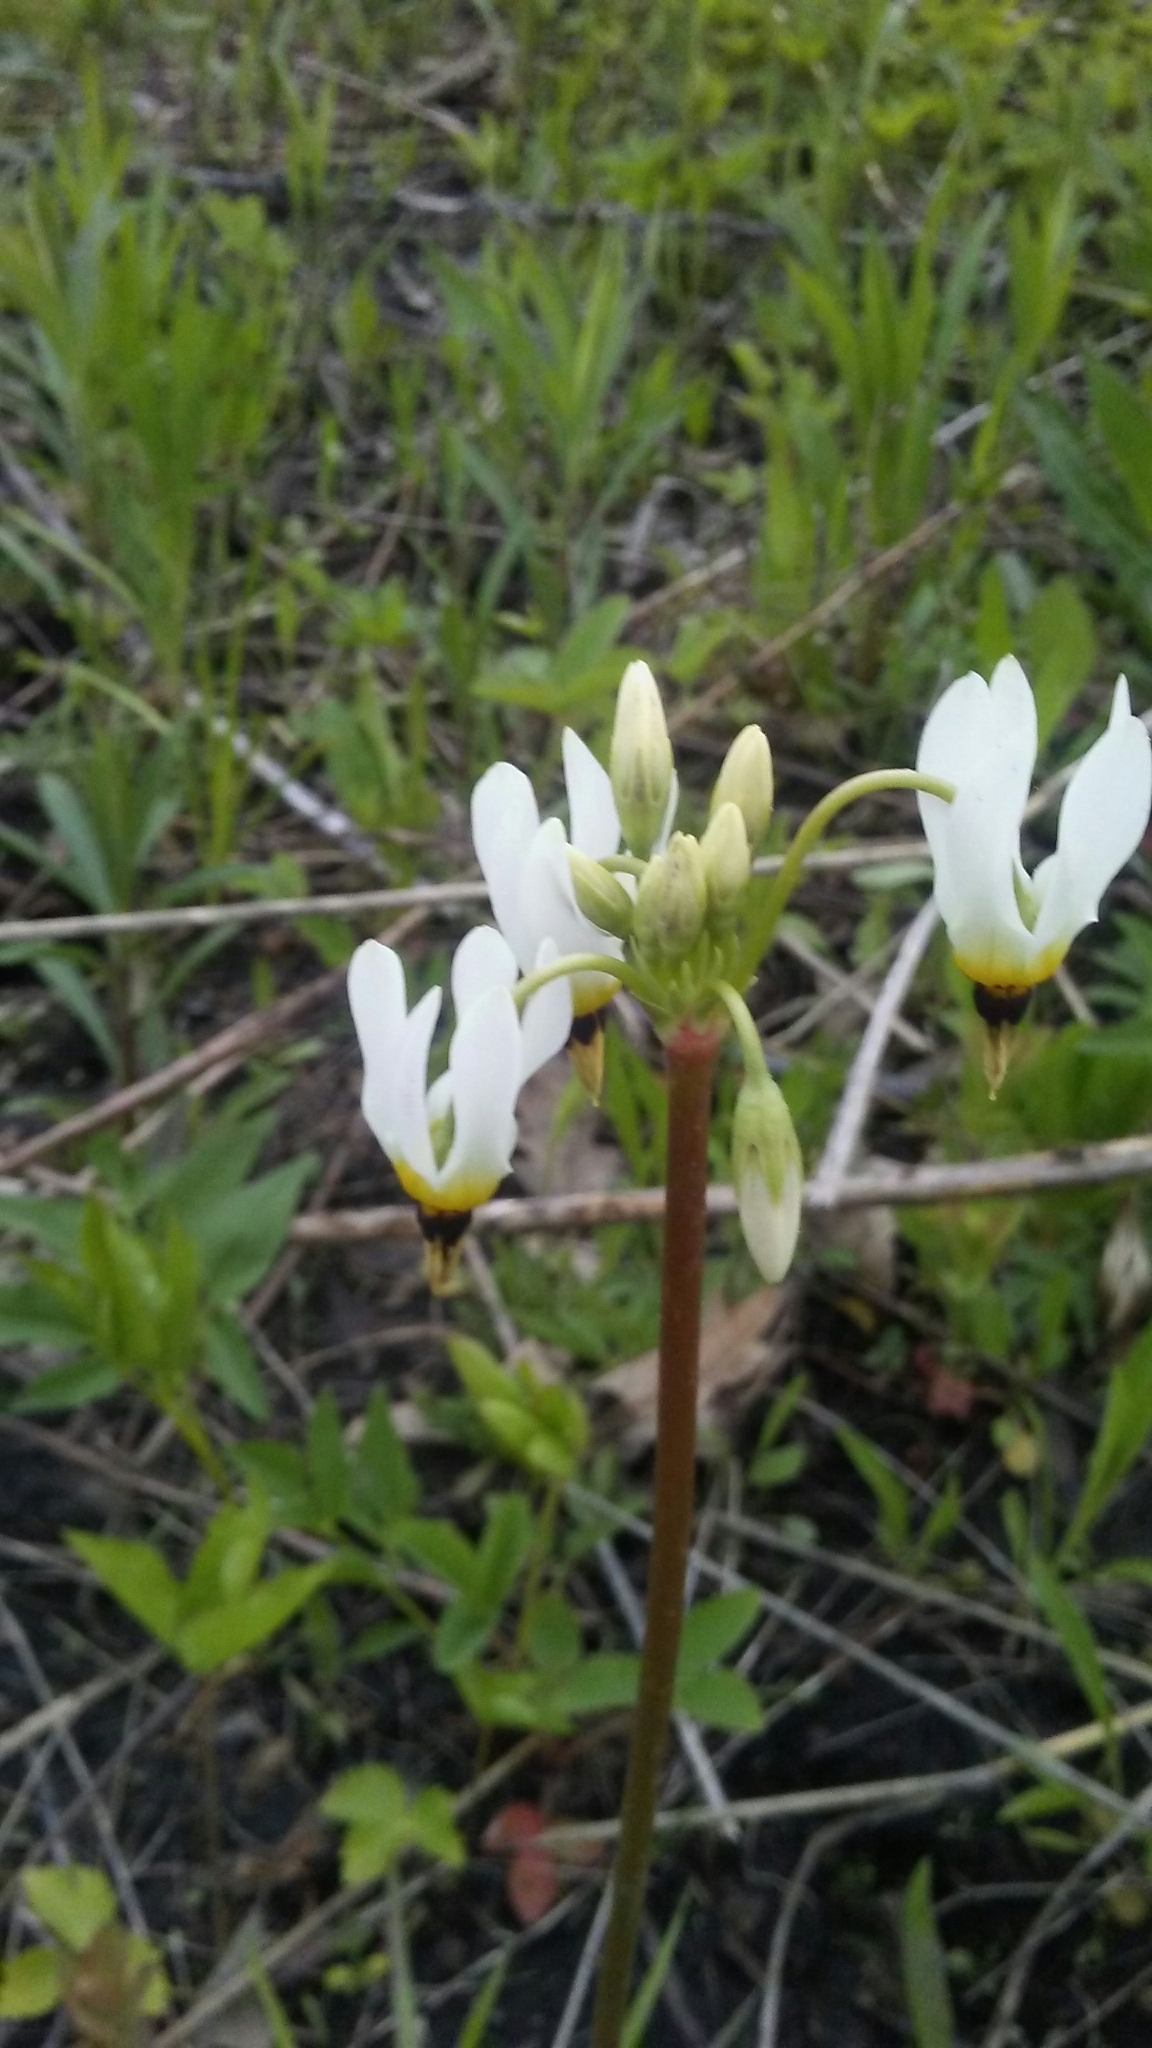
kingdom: Plantae
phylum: Tracheophyta
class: Magnoliopsida
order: Ericales
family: Primulaceae
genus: Dodecatheon
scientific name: Dodecatheon meadia
